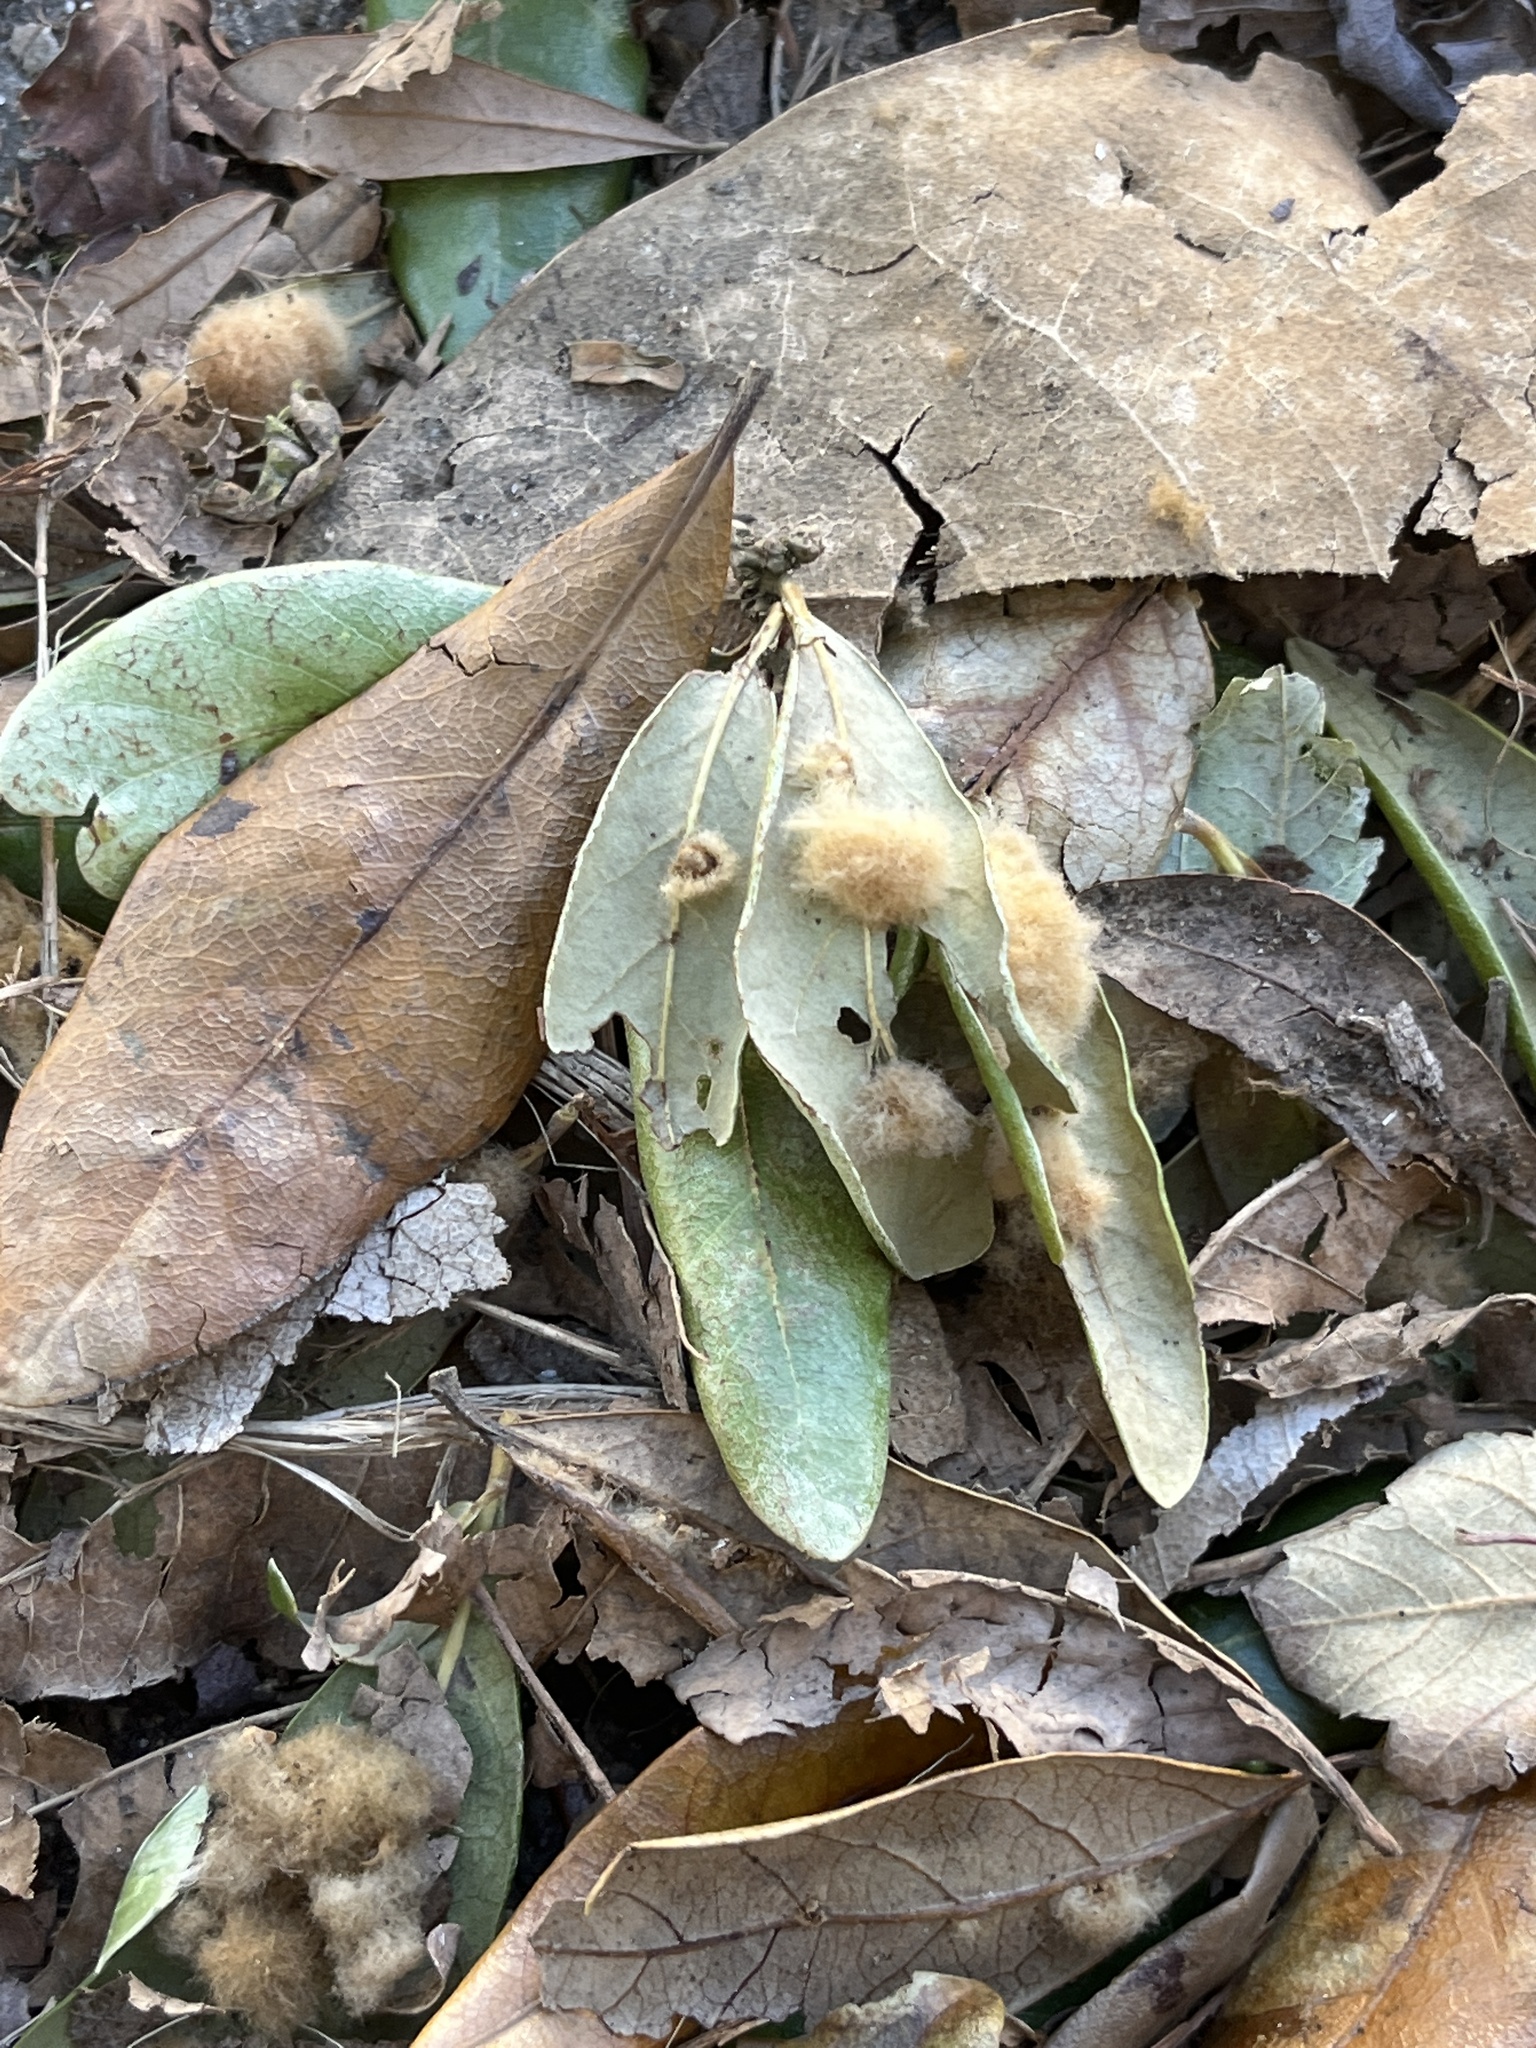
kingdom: Animalia
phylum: Arthropoda
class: Insecta
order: Hymenoptera
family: Cynipidae
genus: Andricus
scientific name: Andricus Druon quercuslanigerum
